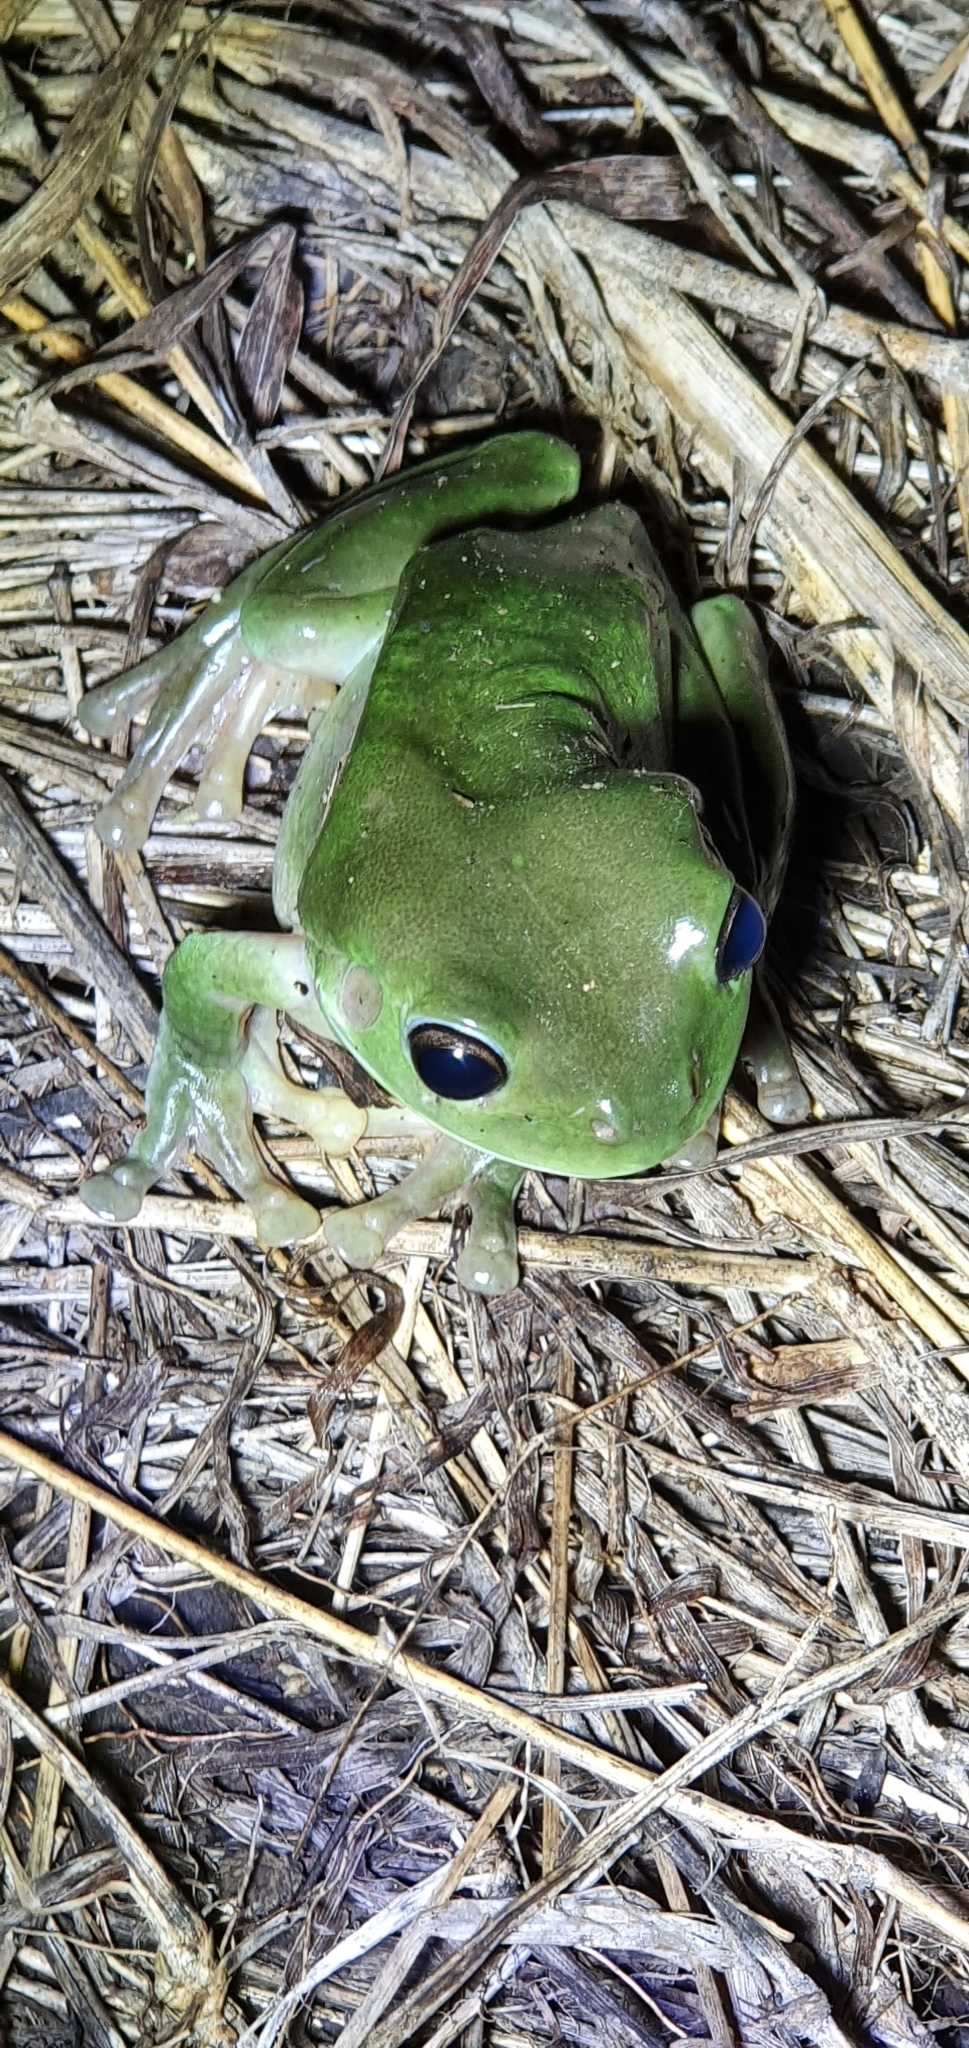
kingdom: Animalia
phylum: Chordata
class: Amphibia
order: Anura
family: Pelodryadidae
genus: Ranoidea
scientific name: Ranoidea caerulea
